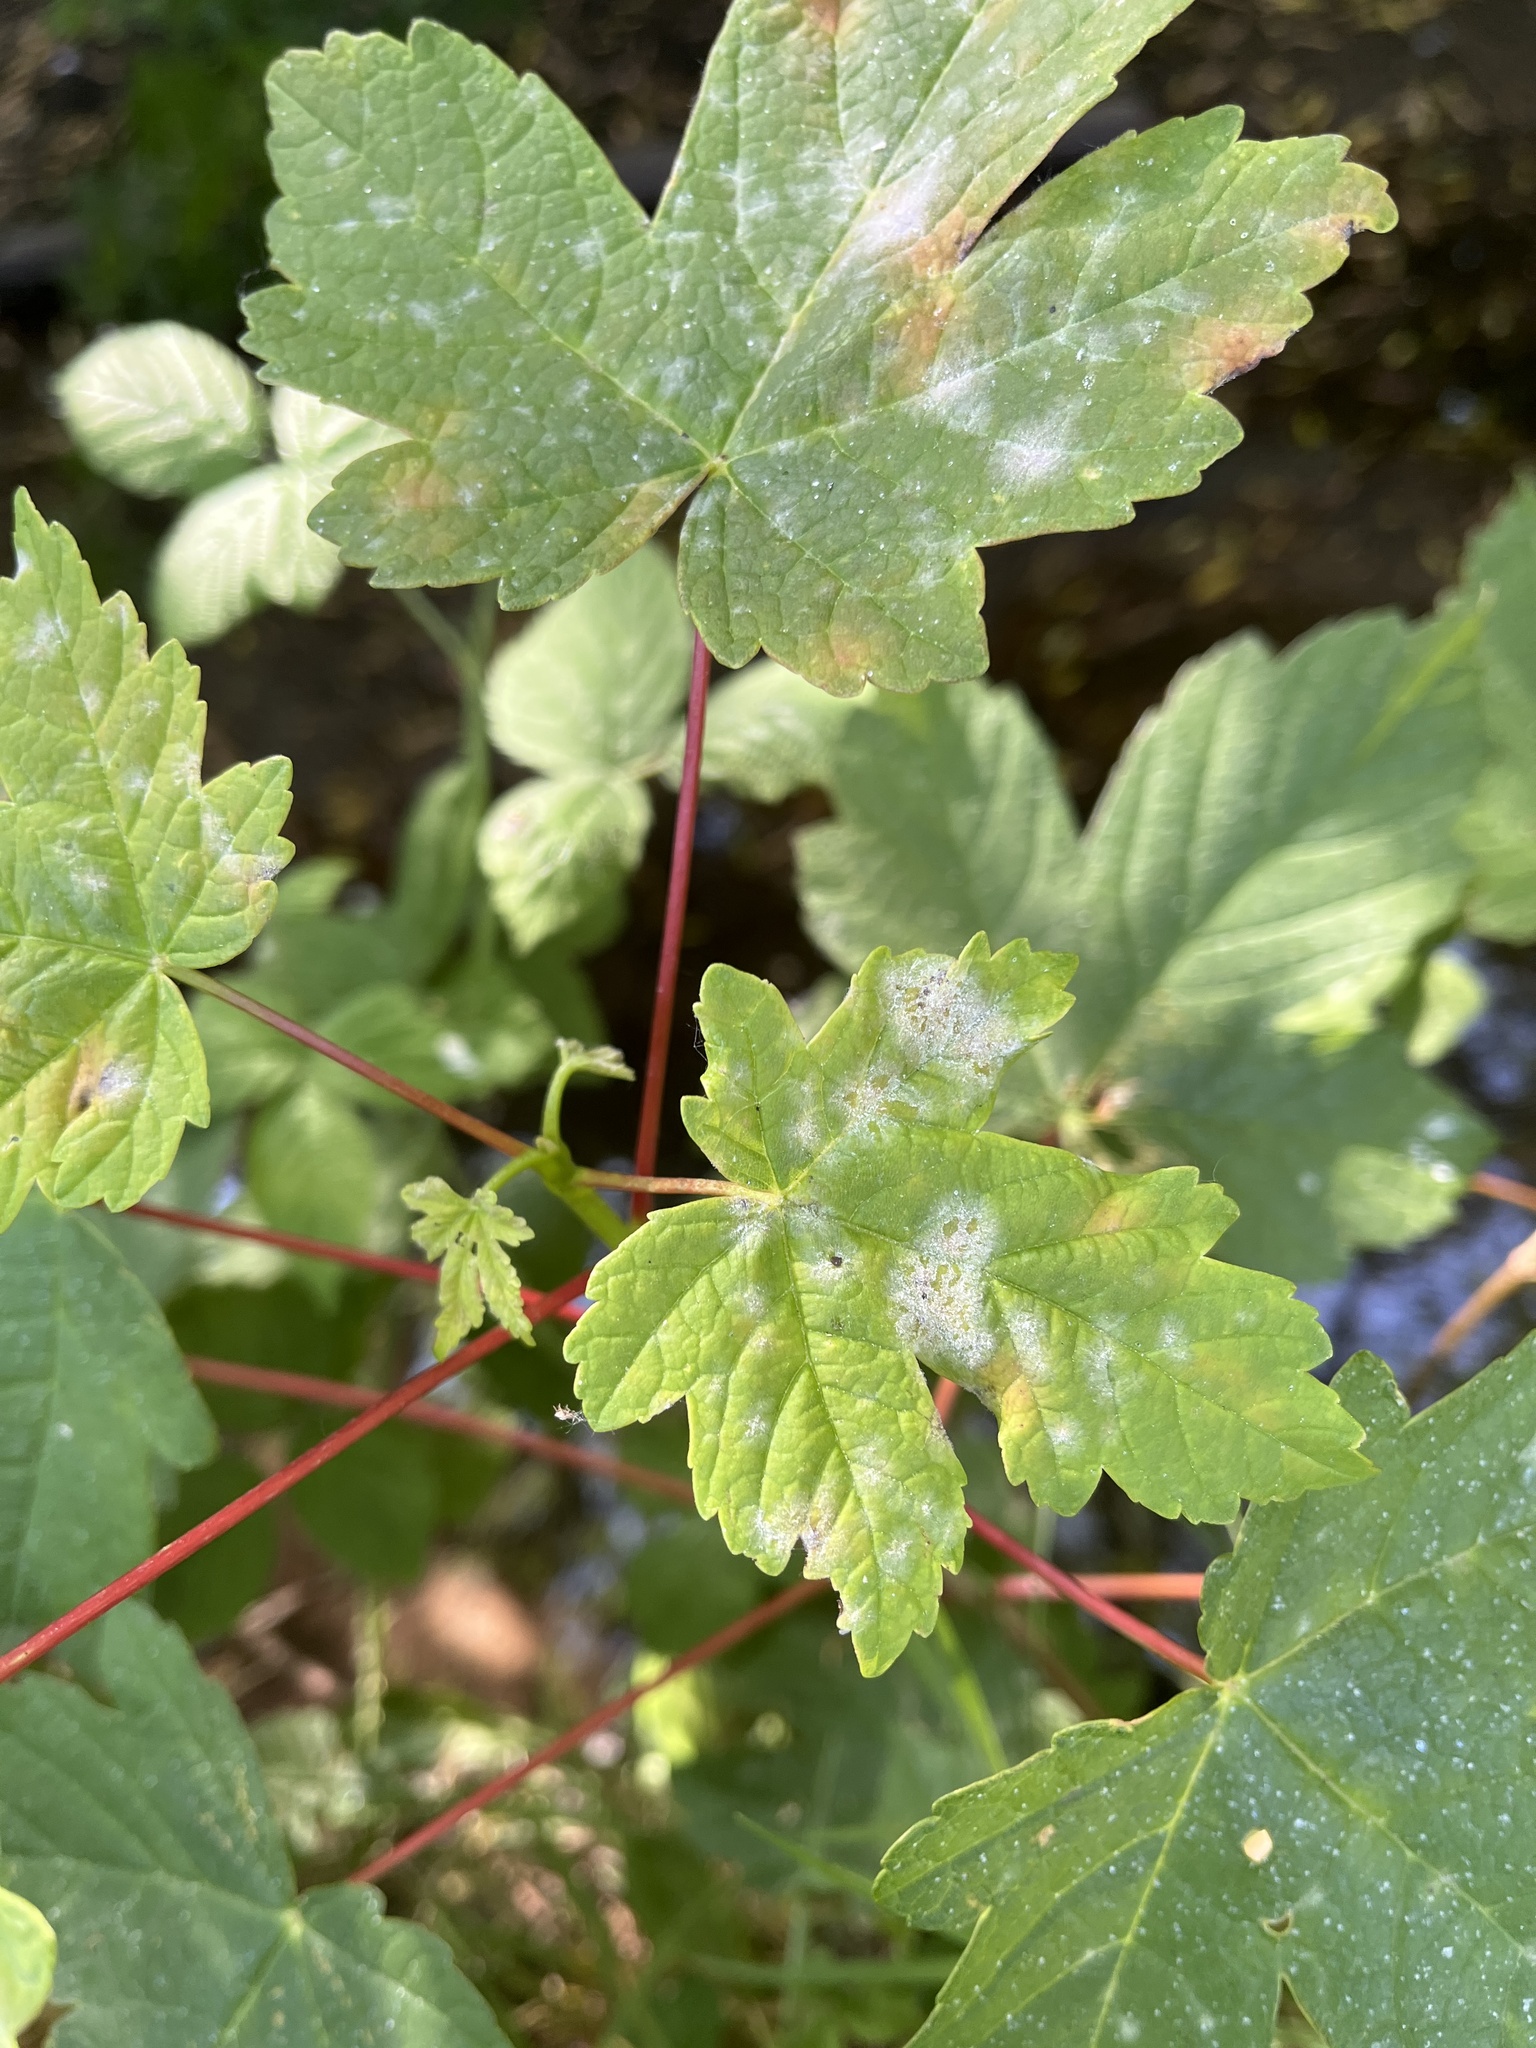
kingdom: Fungi
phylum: Ascomycota
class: Leotiomycetes
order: Helotiales
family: Erysiphaceae
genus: Sawadaea
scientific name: Sawadaea bicornis
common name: Maple mildew
